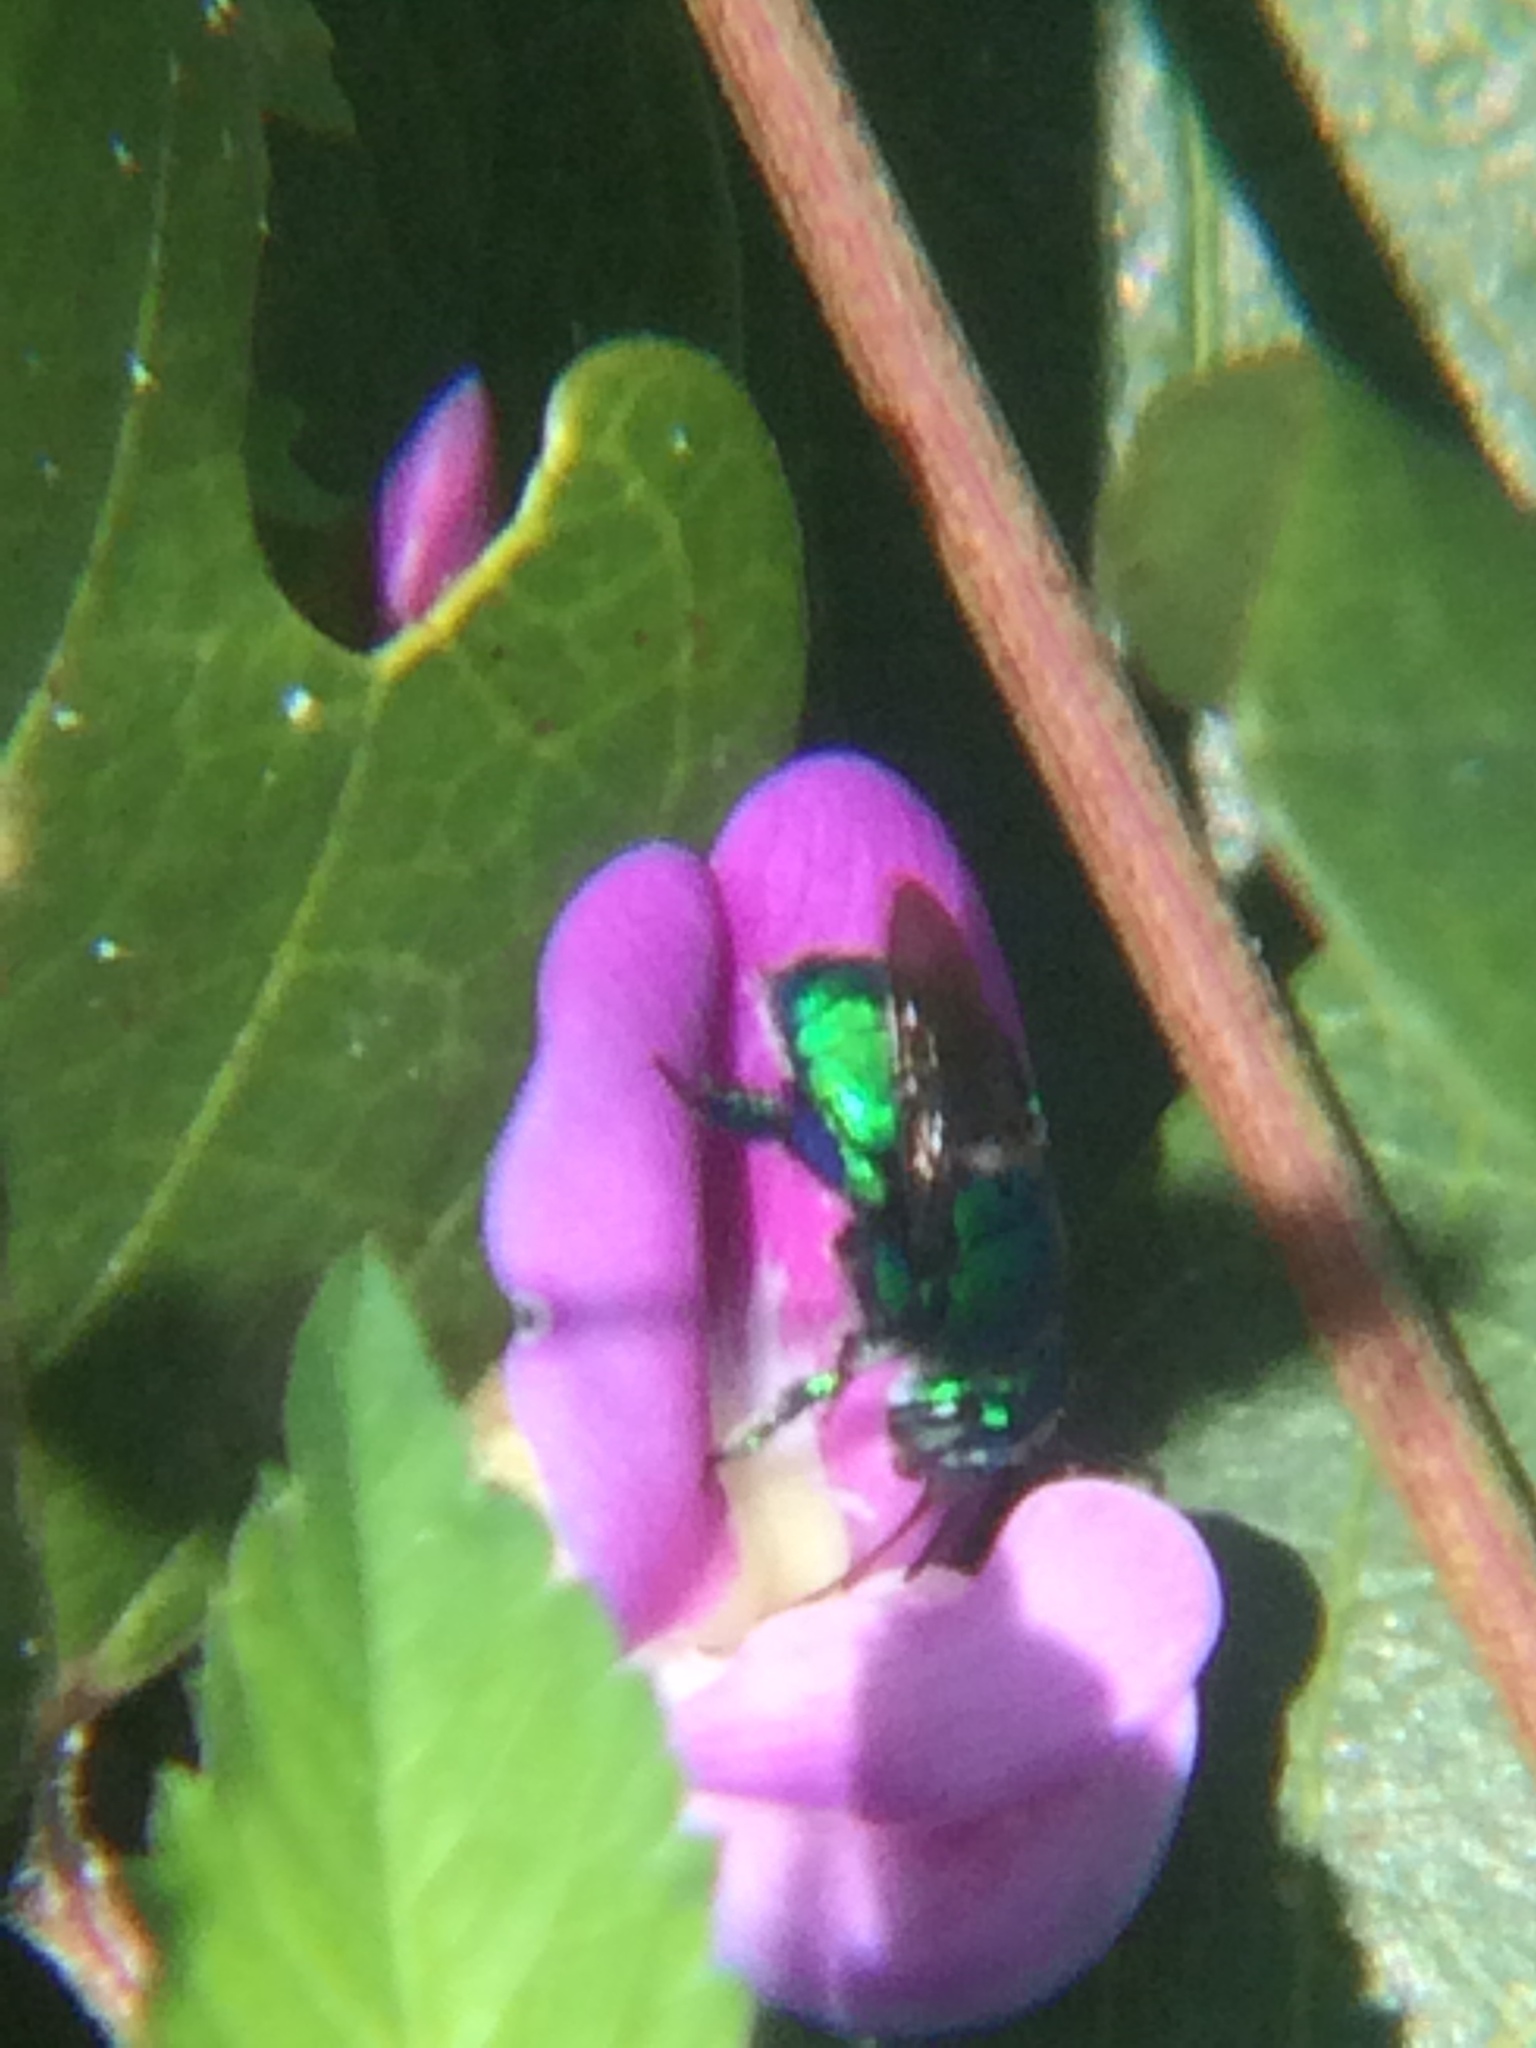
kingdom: Animalia
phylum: Arthropoda
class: Insecta
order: Hymenoptera
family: Apidae
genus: Euglossa
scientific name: Euglossa dilemma
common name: Green orchid bee
